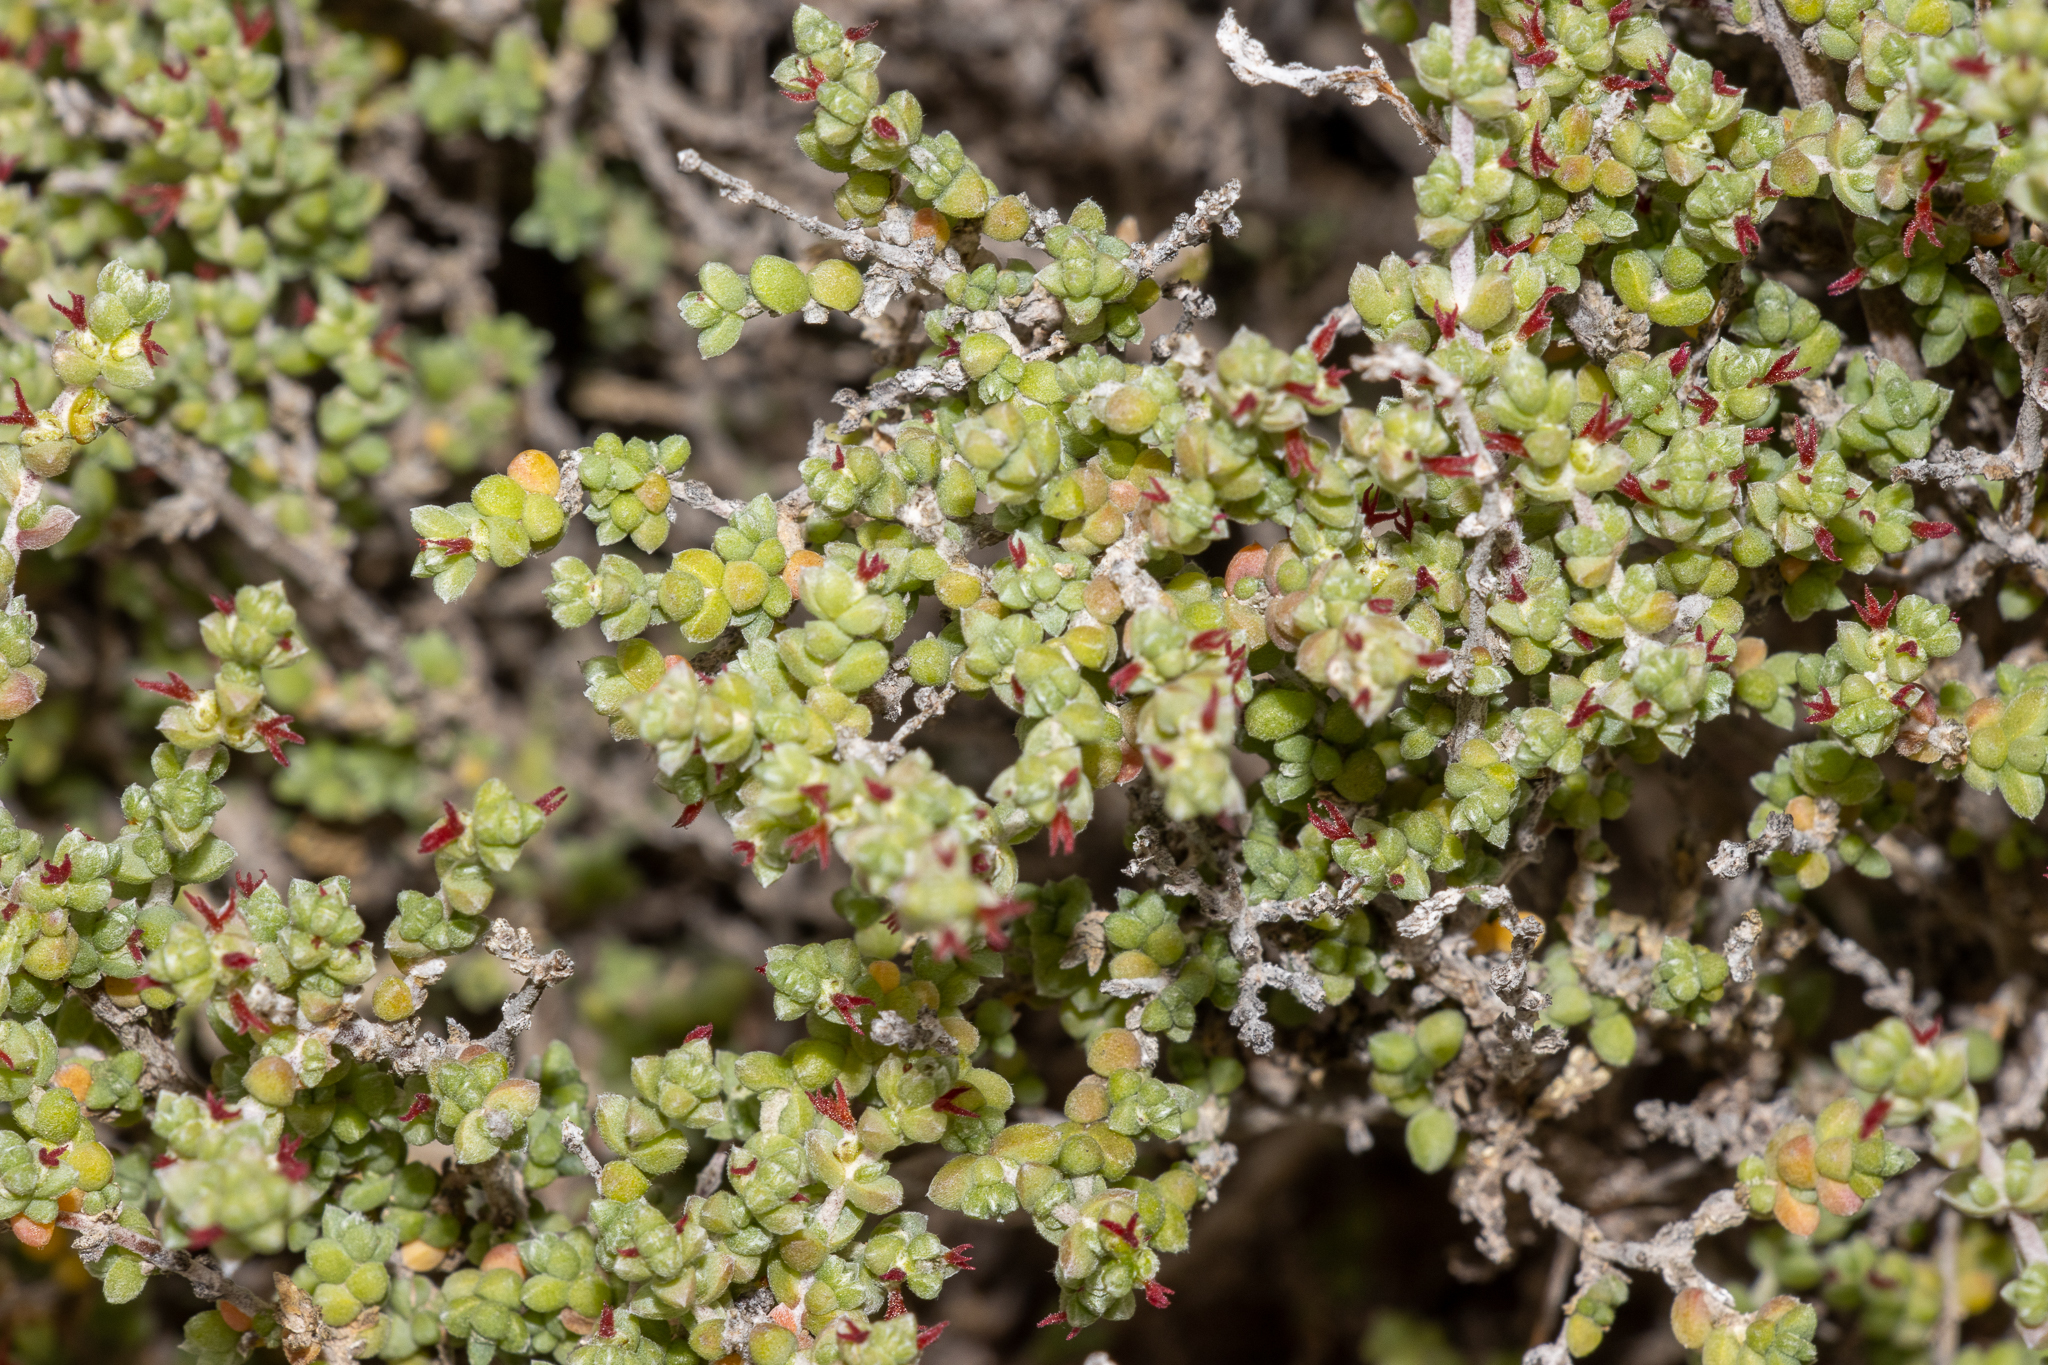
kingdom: Plantae
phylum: Tracheophyta
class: Magnoliopsida
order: Caryophyllales
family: Amaranthaceae
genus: Maireana
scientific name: Maireana oppositifolia
